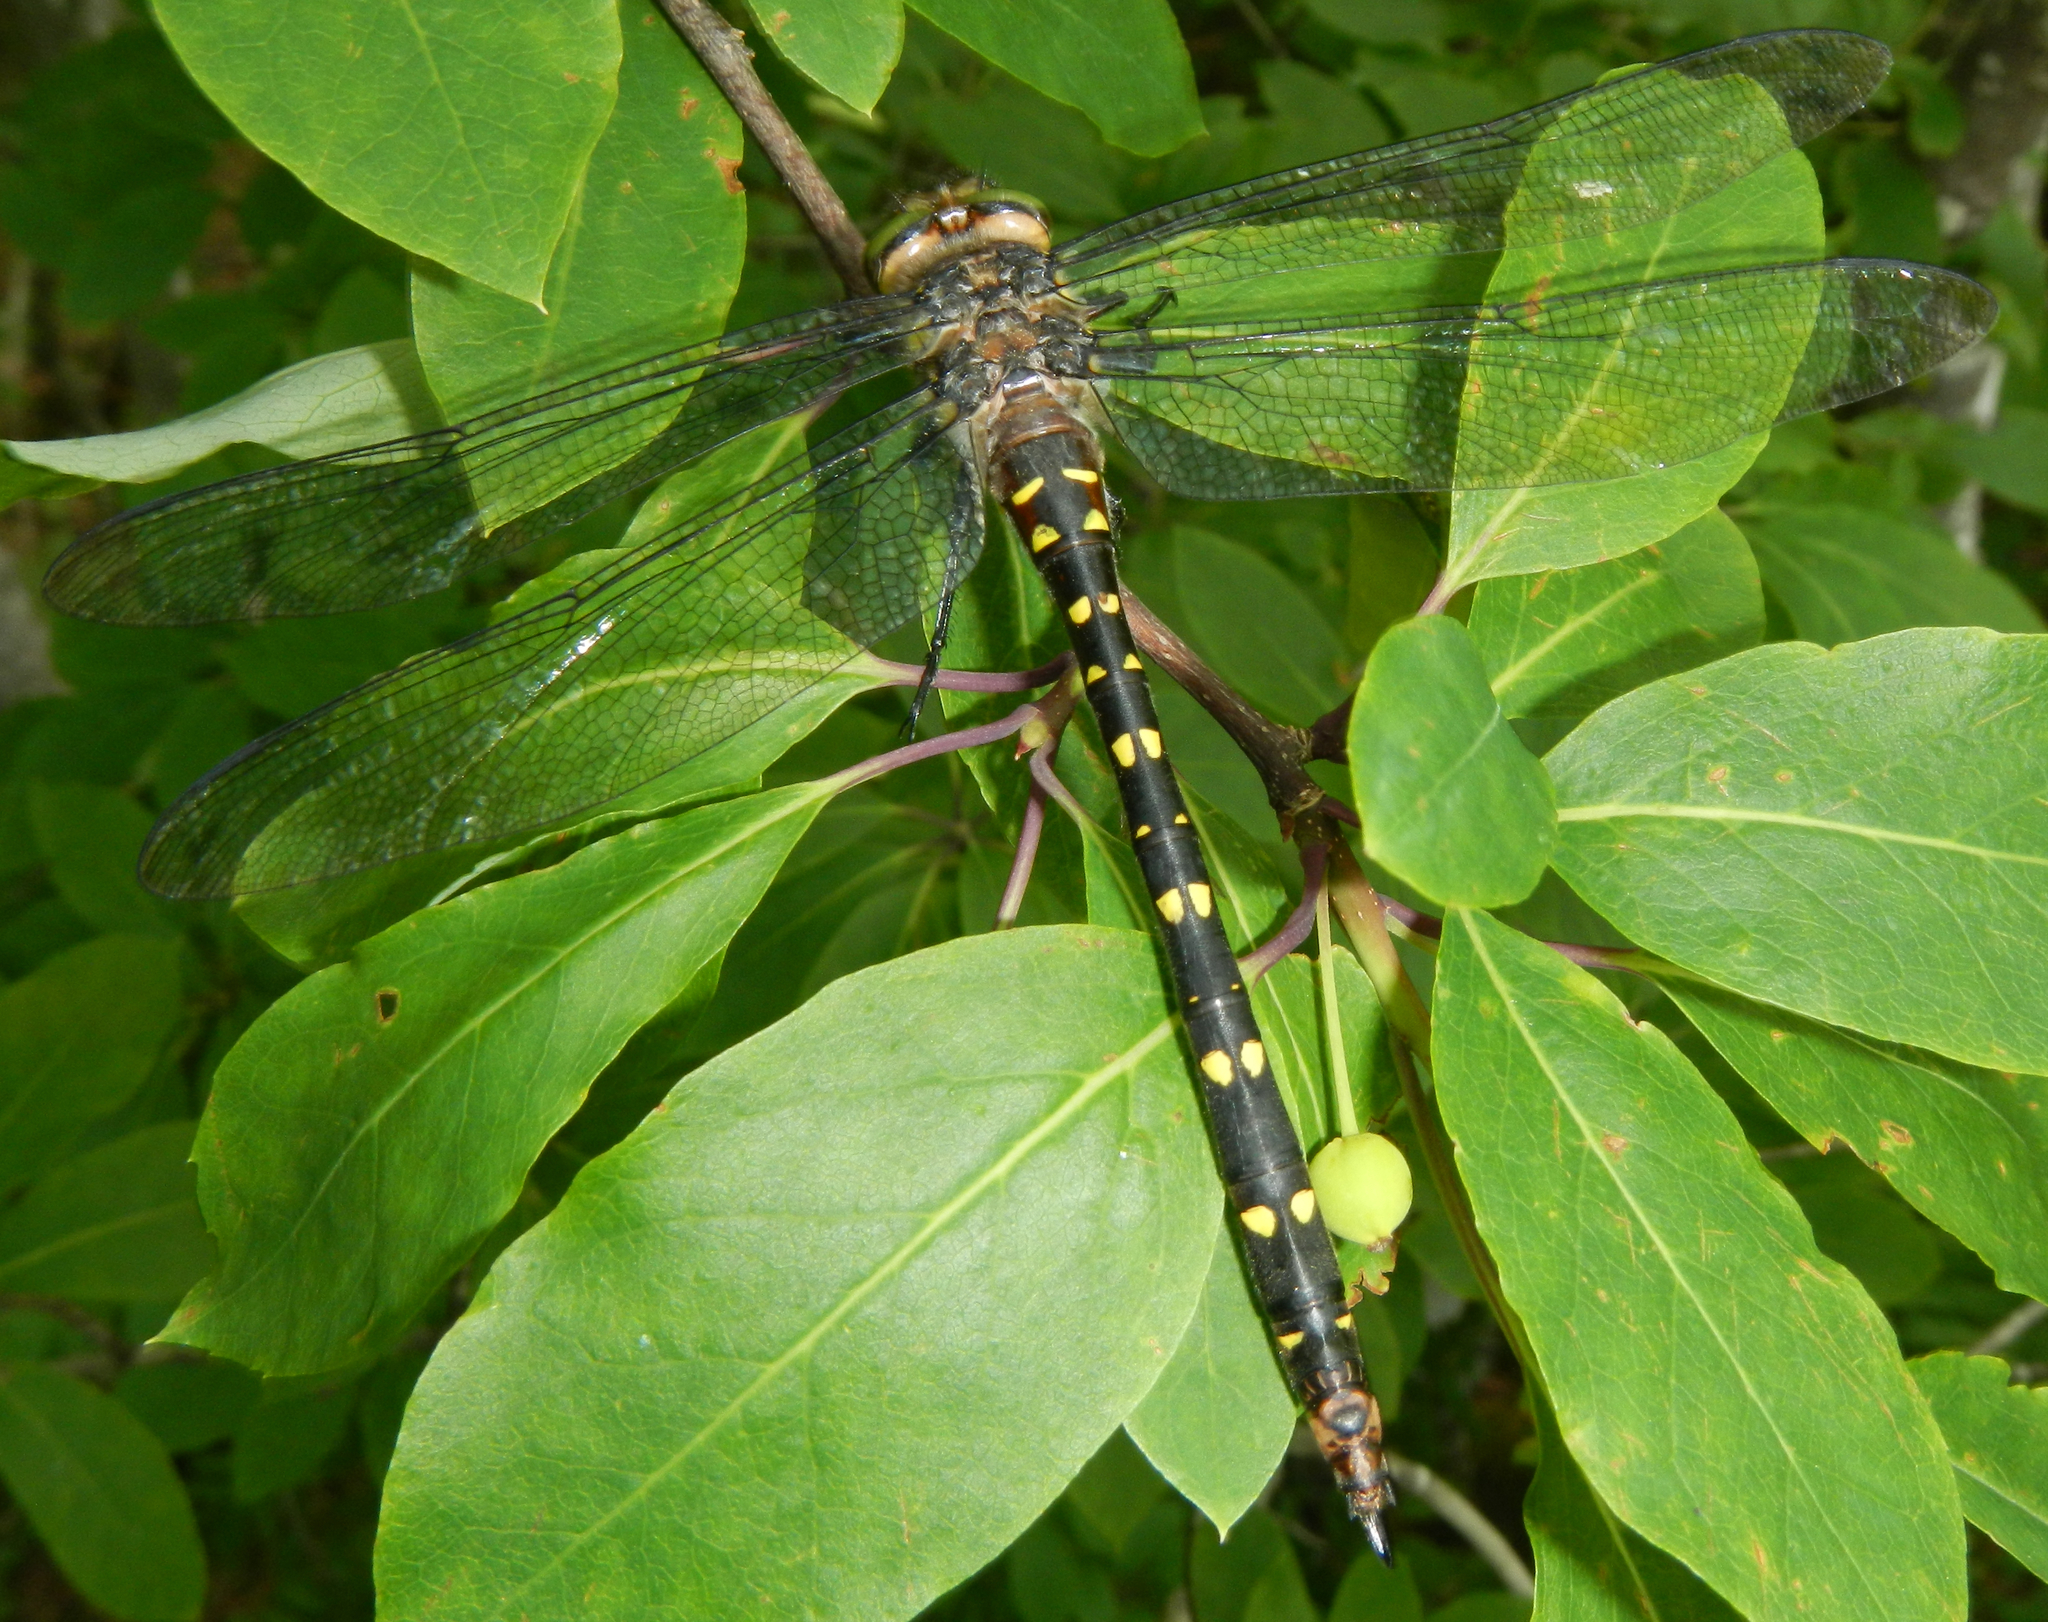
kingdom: Animalia
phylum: Arthropoda
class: Insecta
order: Odonata
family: Cordulegastridae
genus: Cordulegaster
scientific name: Cordulegaster maculata
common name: Twin-spotted spiketail
